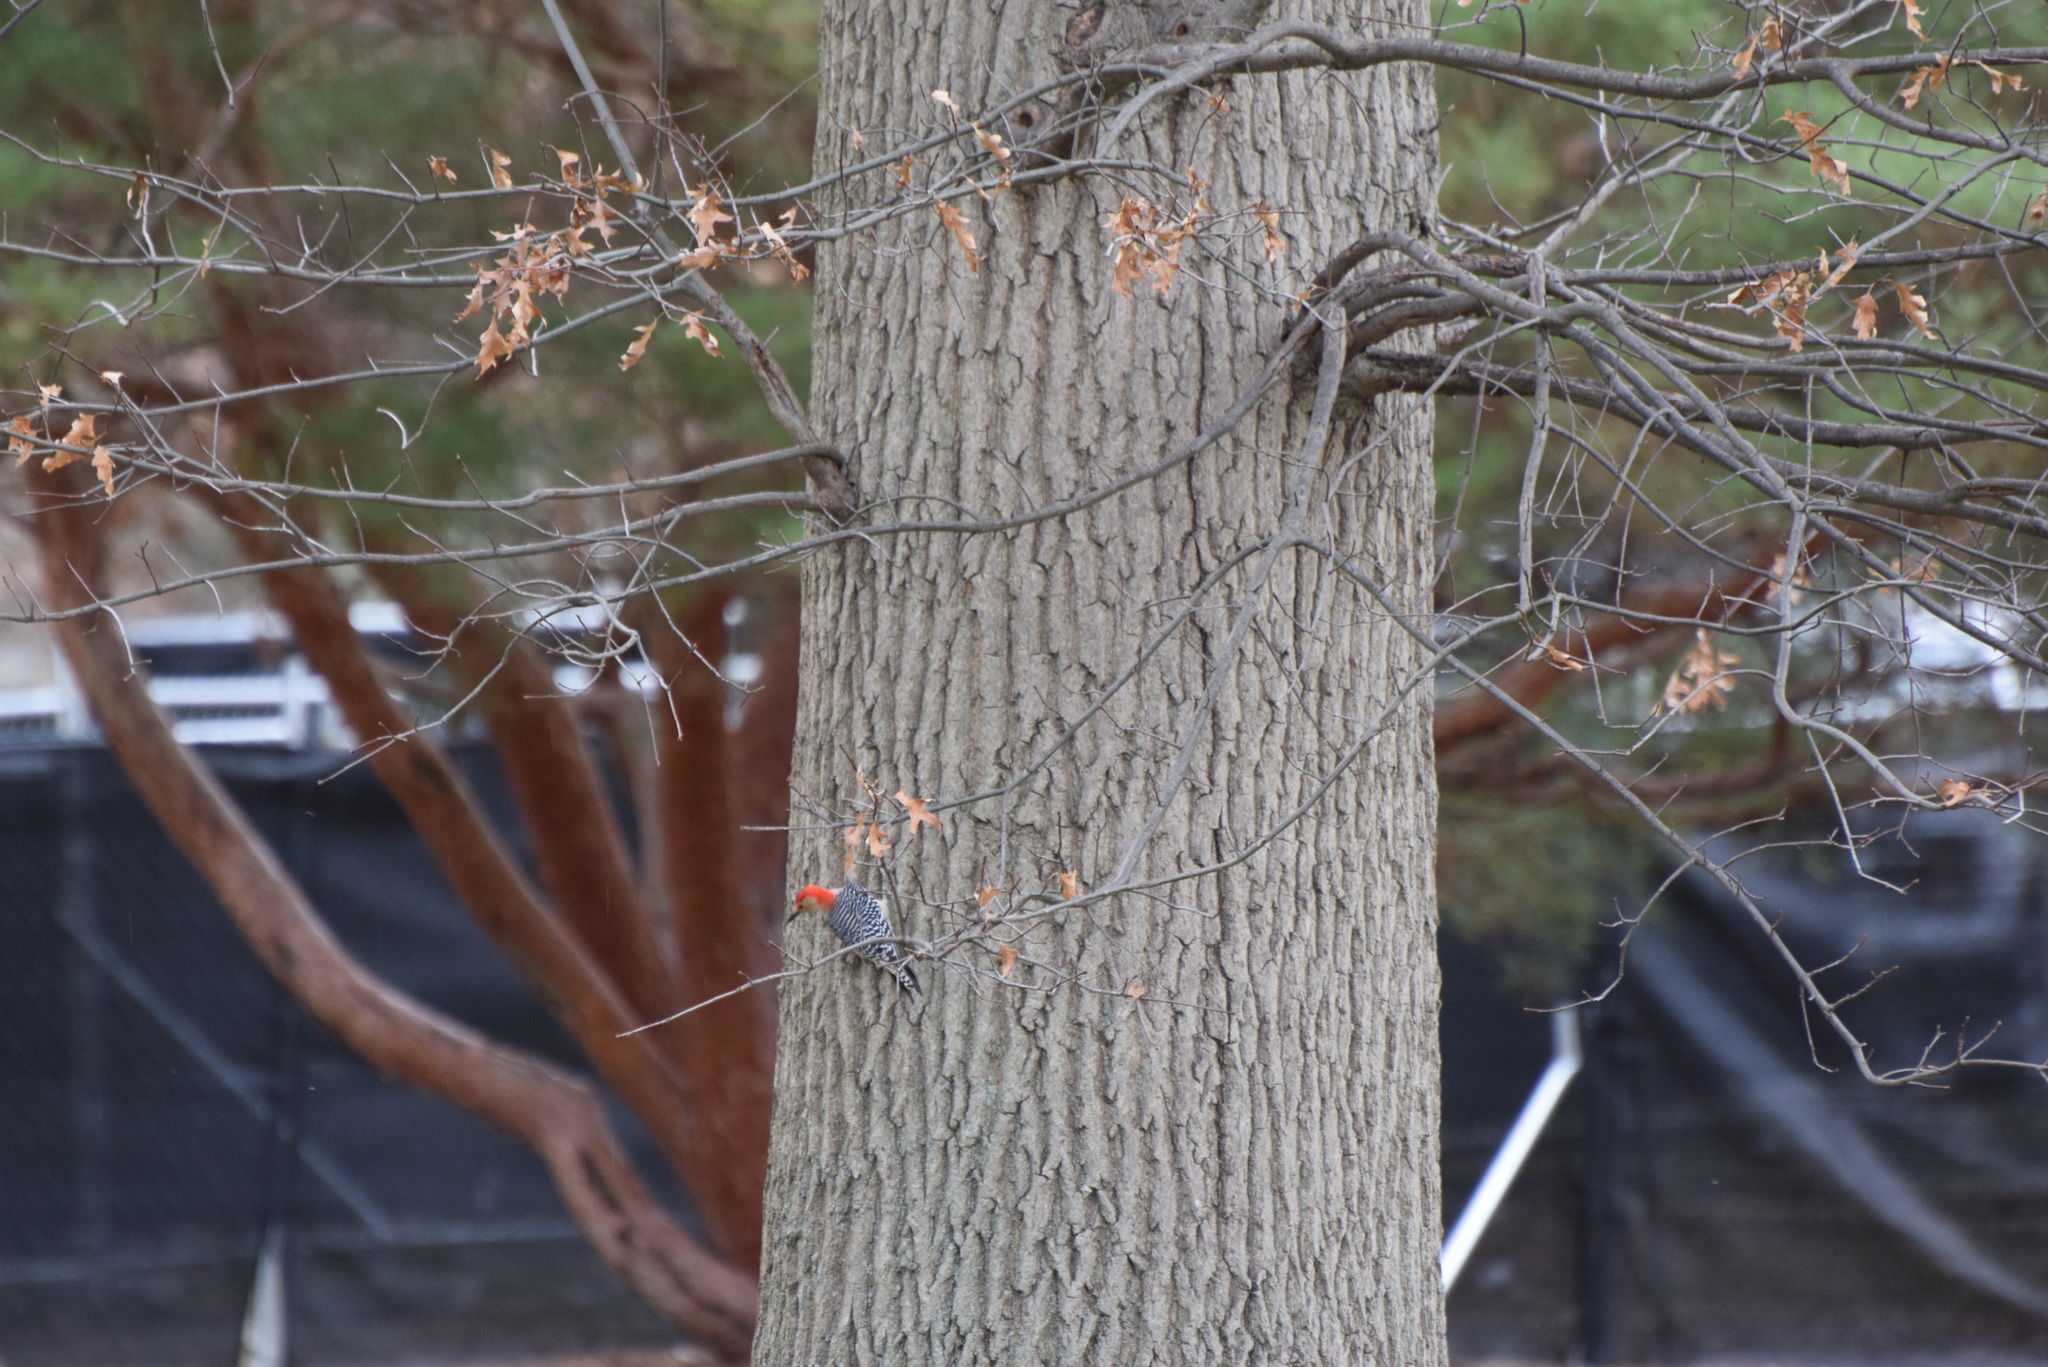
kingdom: Animalia
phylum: Chordata
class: Aves
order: Piciformes
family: Picidae
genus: Melanerpes
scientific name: Melanerpes carolinus
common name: Red-bellied woodpecker
